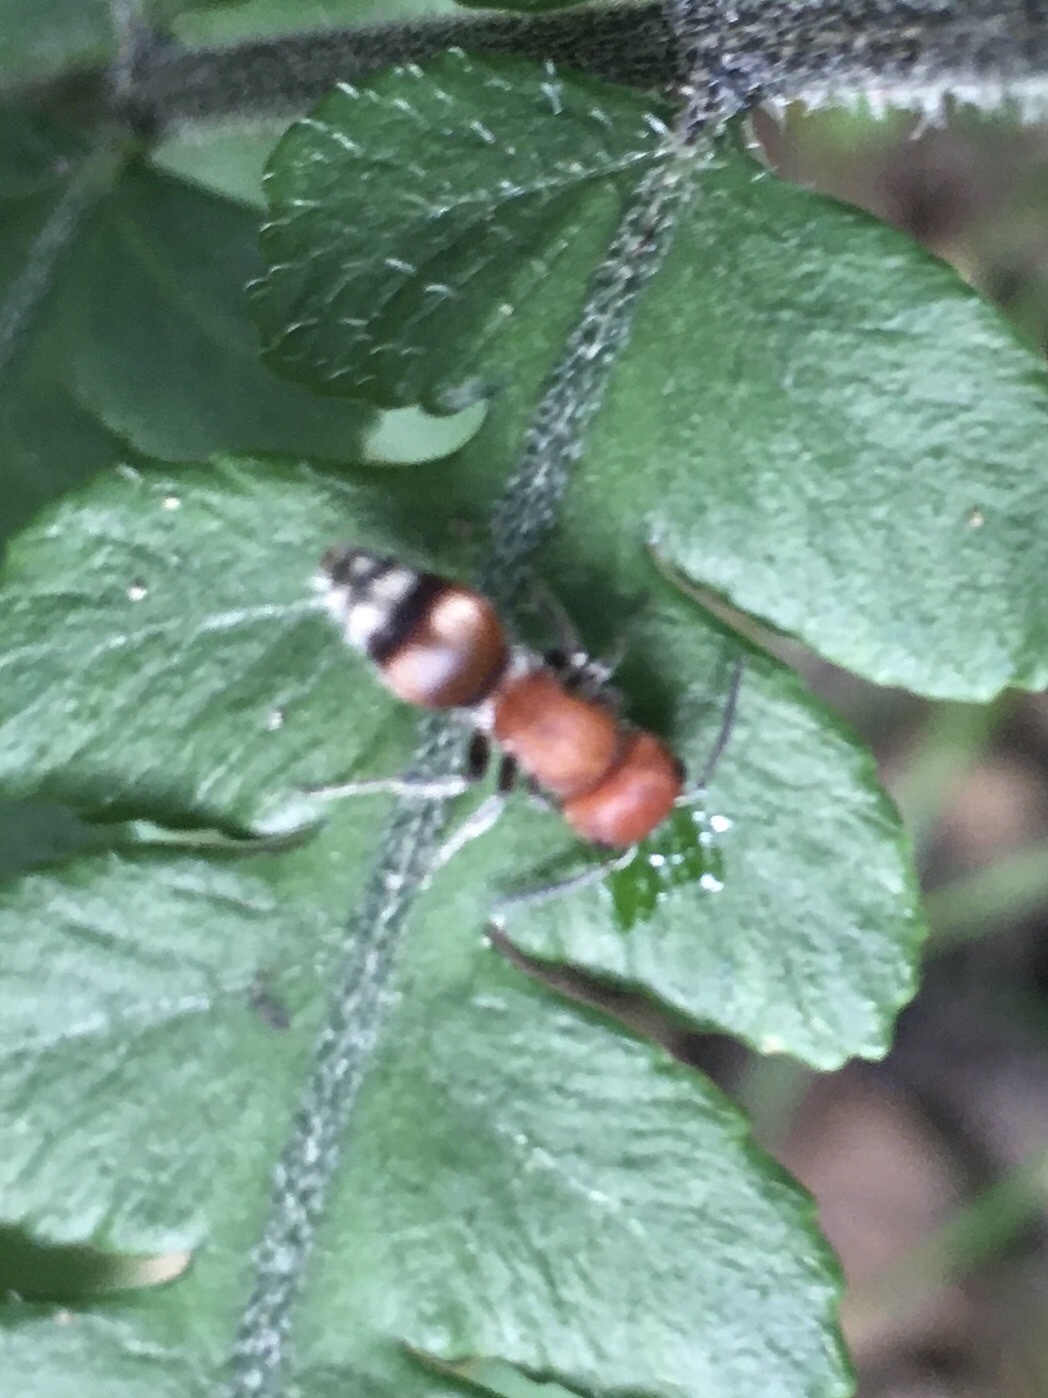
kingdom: Animalia
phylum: Arthropoda
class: Insecta
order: Hymenoptera
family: Mutillidae
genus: Pseudomethoca
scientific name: Pseudomethoca
